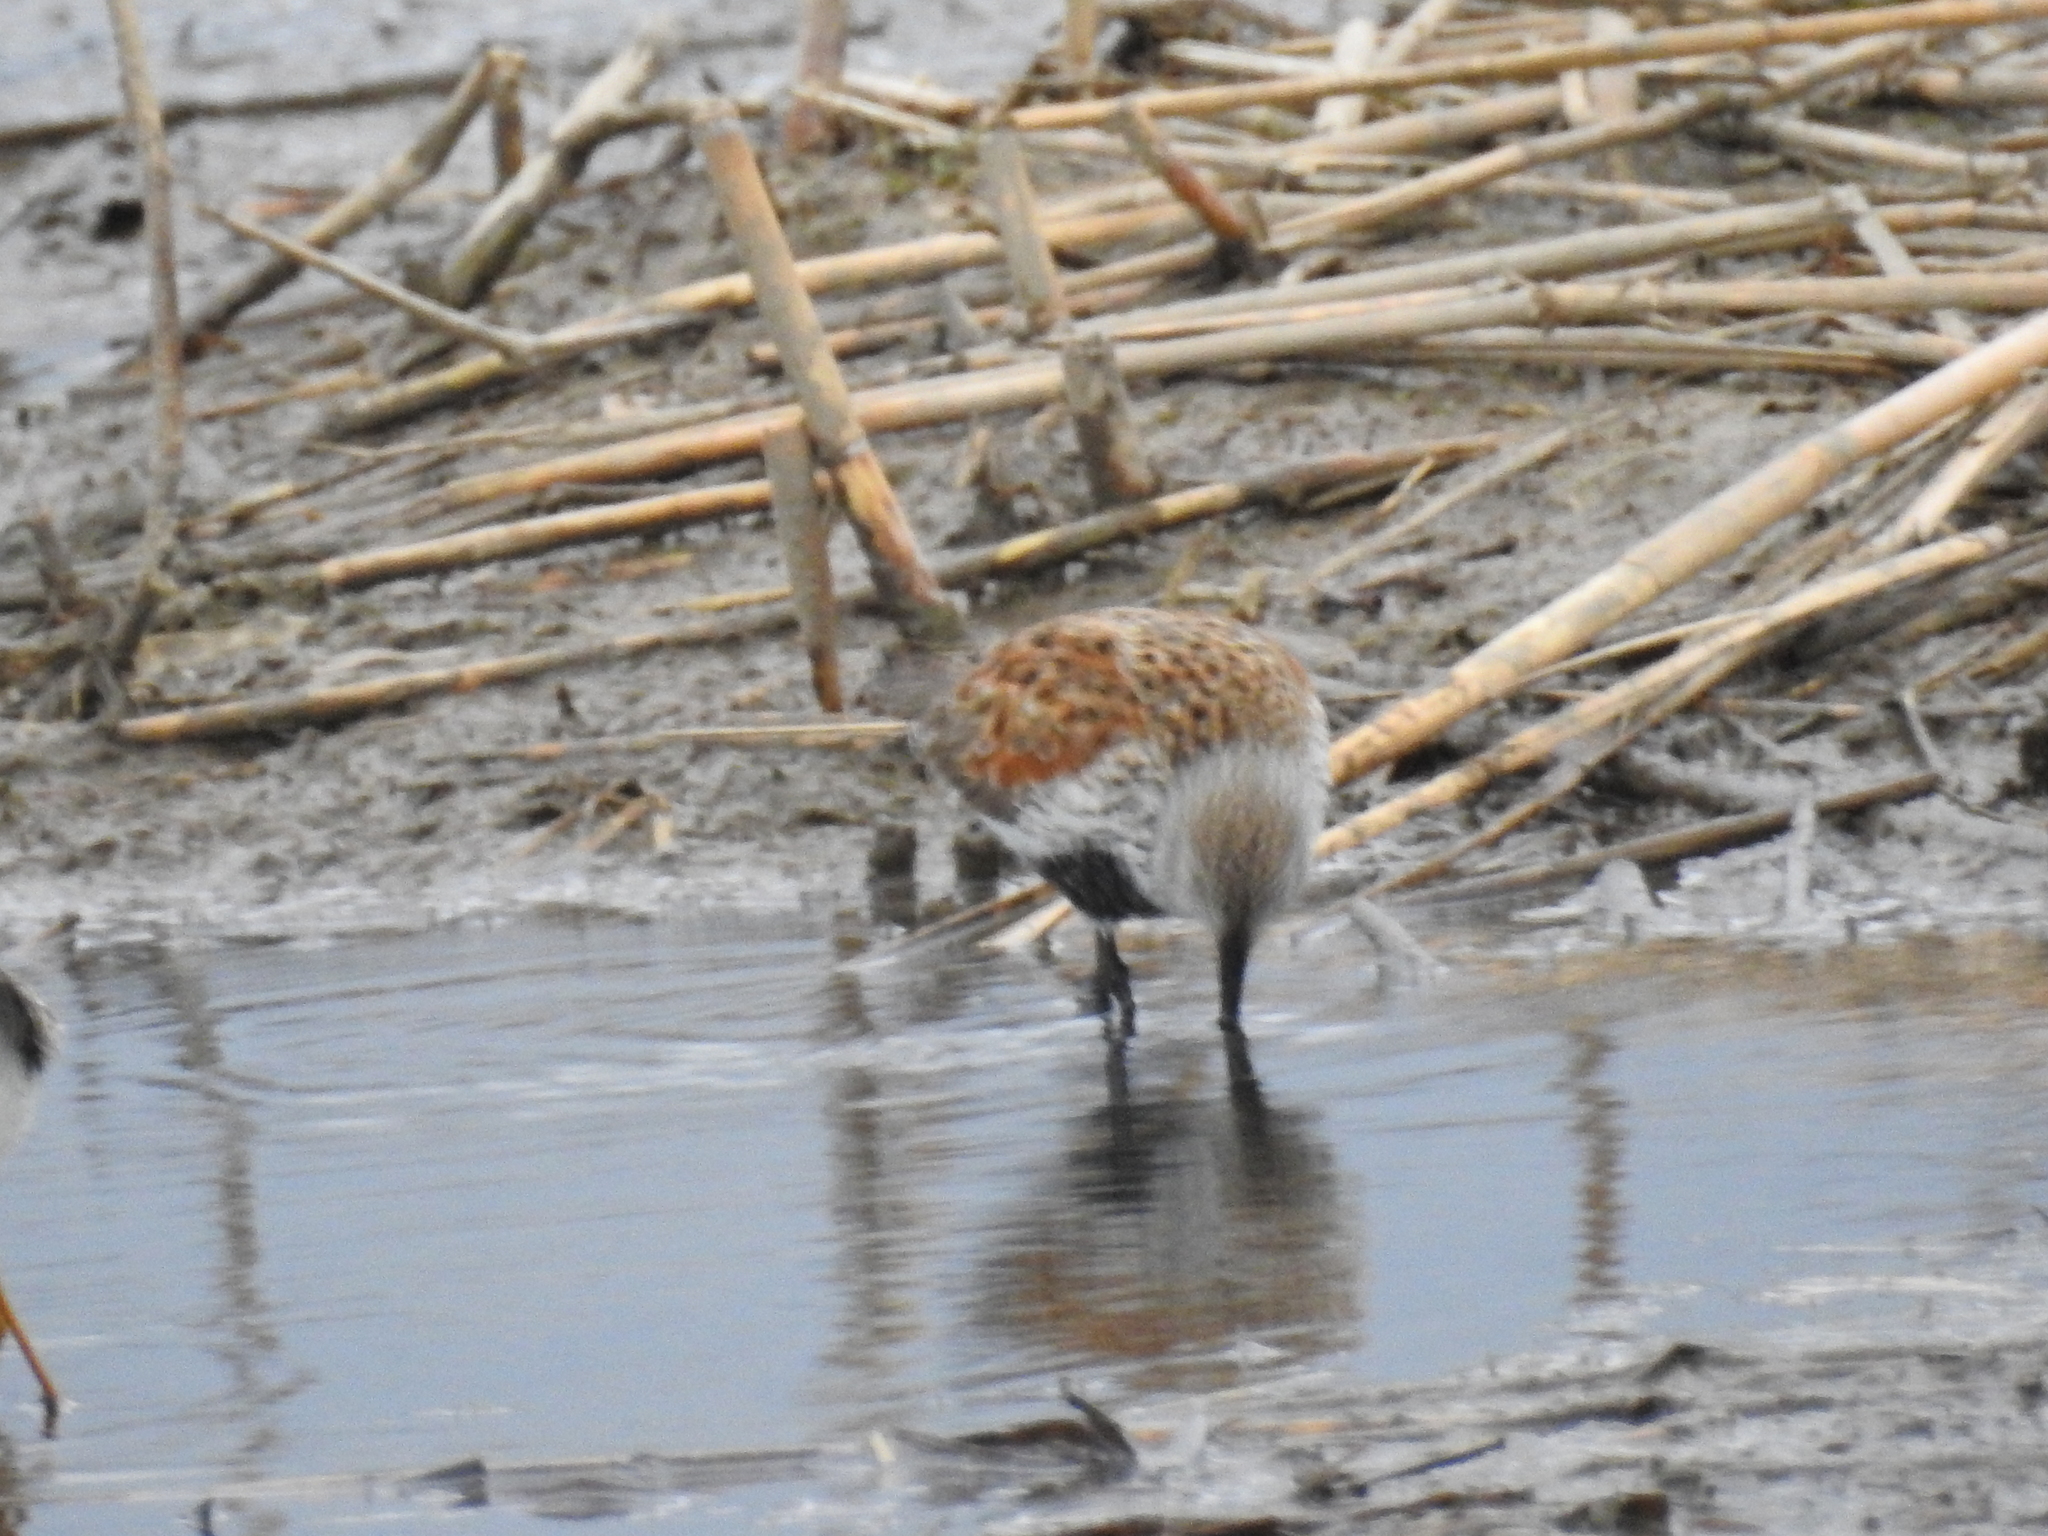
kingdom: Animalia
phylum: Chordata
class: Aves
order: Charadriiformes
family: Scolopacidae
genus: Calidris
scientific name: Calidris alpina
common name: Dunlin
